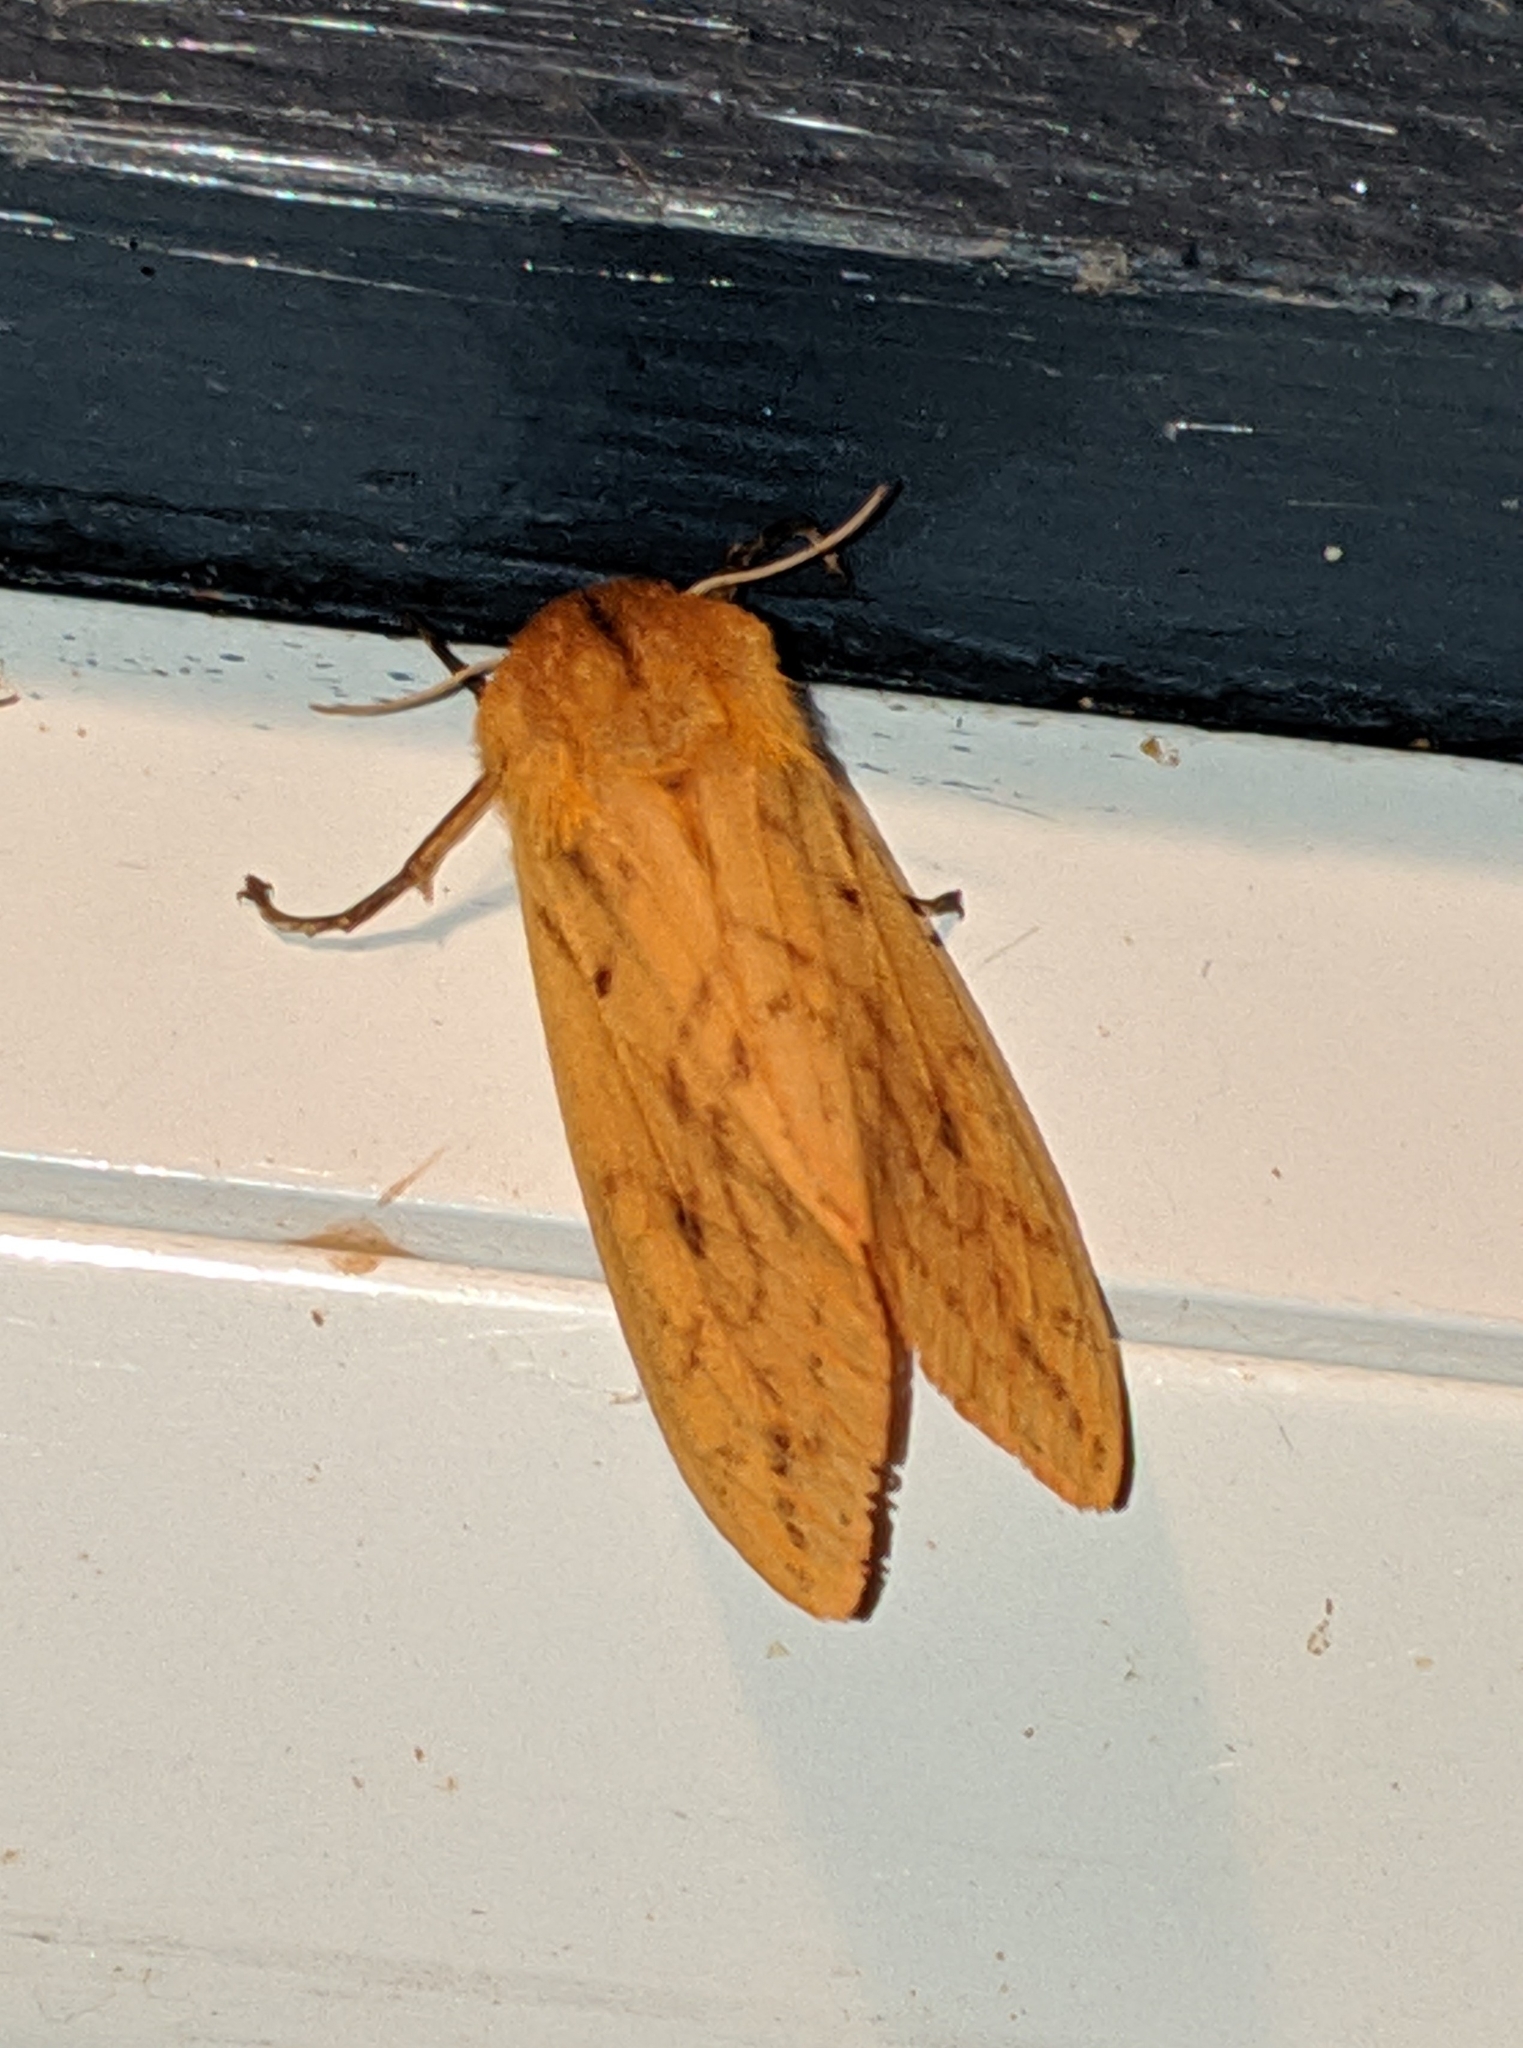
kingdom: Animalia
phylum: Arthropoda
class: Insecta
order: Lepidoptera
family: Erebidae
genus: Pyrrharctia
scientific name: Pyrrharctia isabella
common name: Isabella tiger moth
